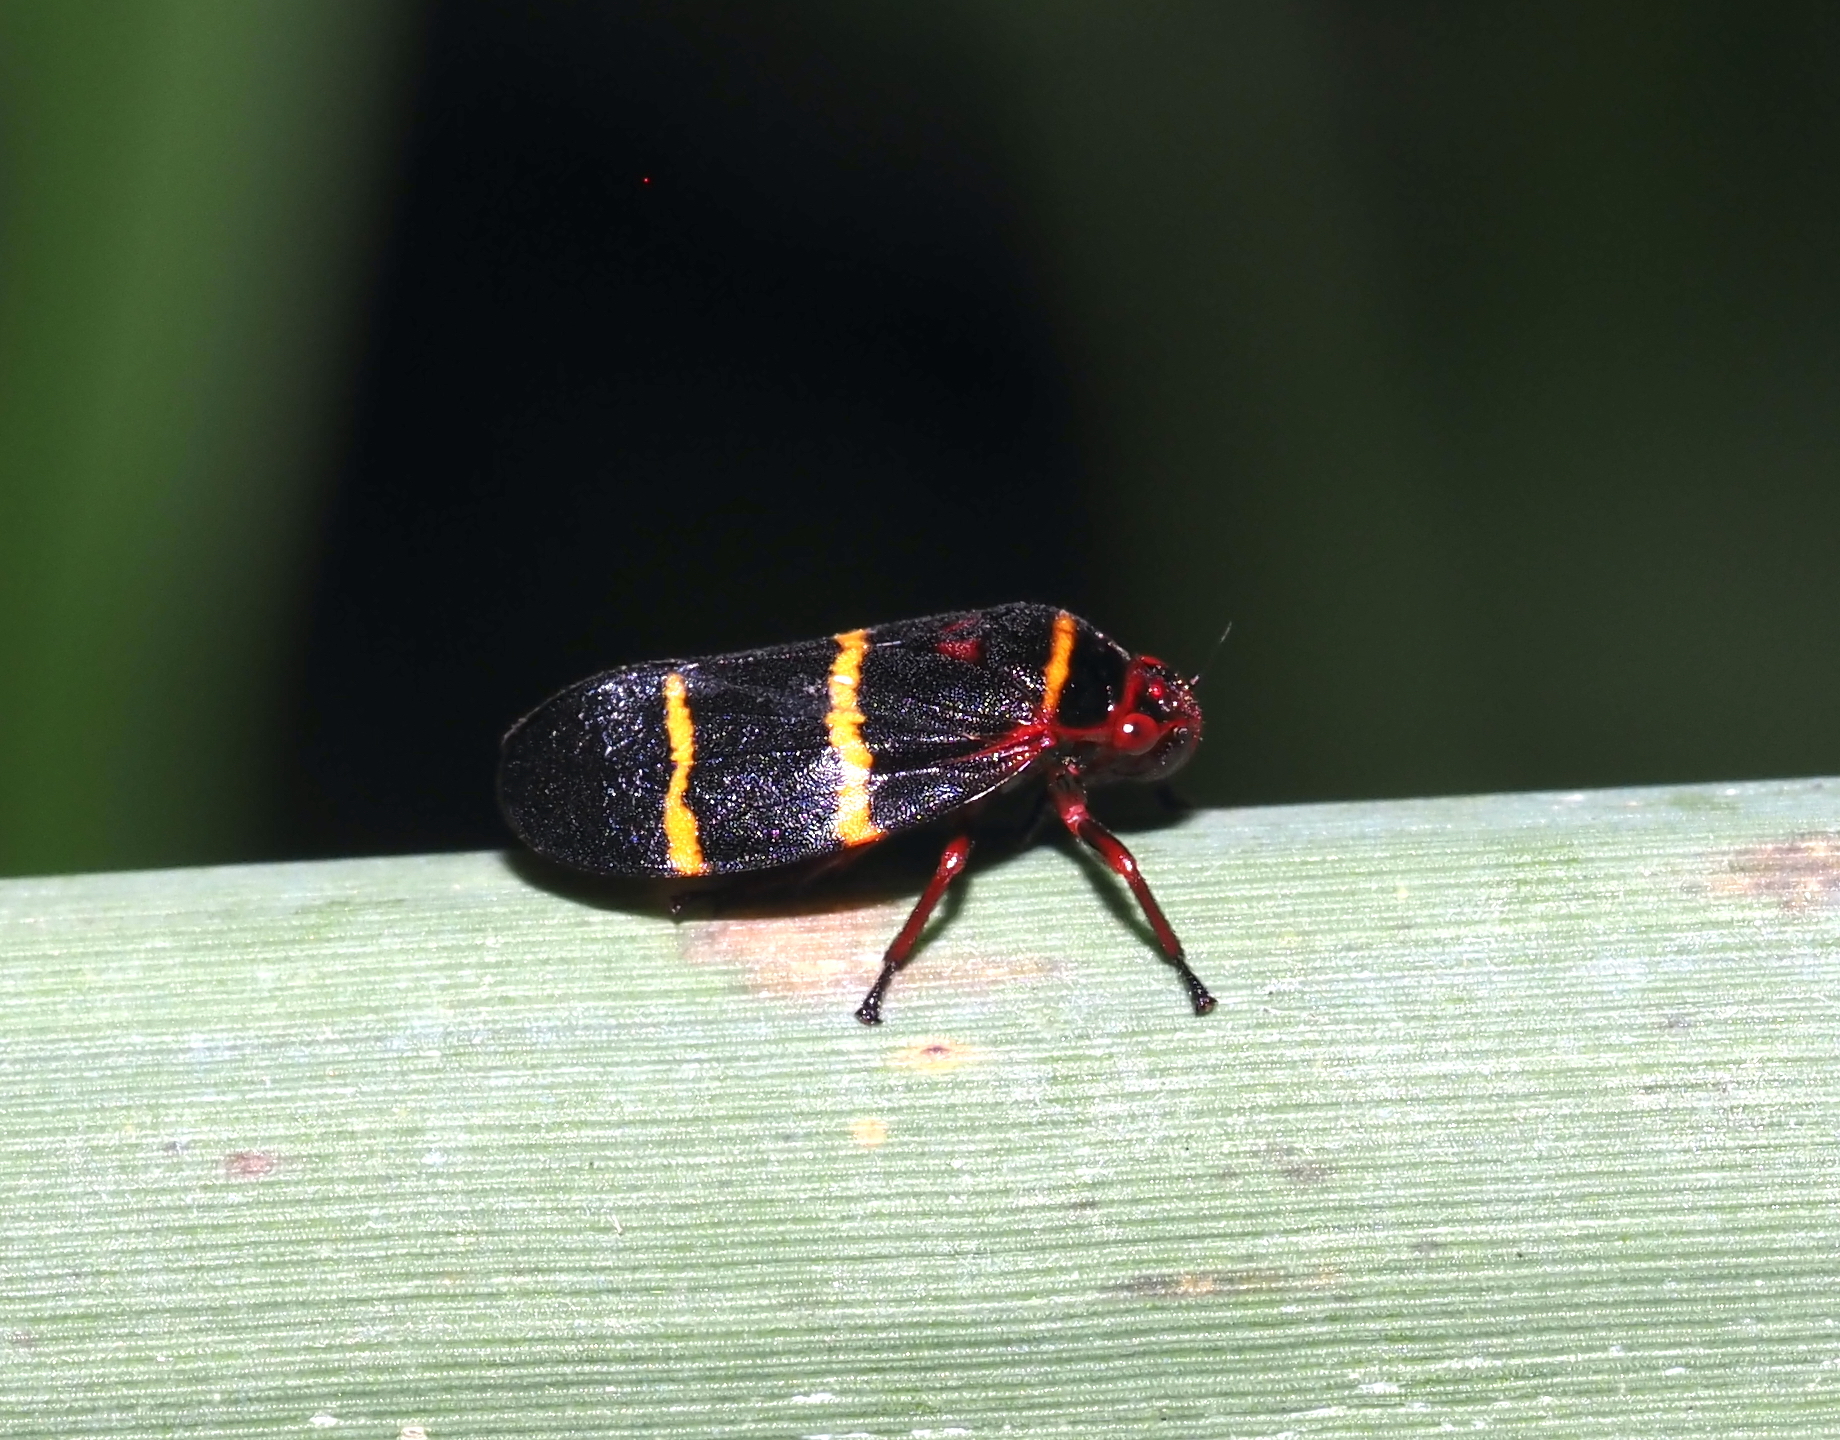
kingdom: Animalia
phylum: Arthropoda
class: Insecta
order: Hemiptera
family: Cercopidae
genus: Prosapia
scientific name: Prosapia bicincta
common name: Twolined spittlebug
